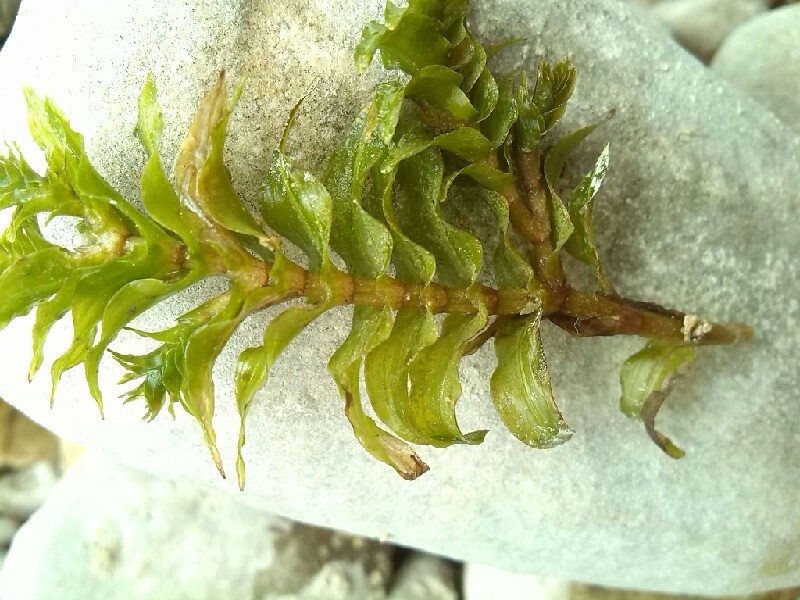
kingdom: Plantae
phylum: Tracheophyta
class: Liliopsida
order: Alismatales
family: Potamogetonaceae
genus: Groenlandia
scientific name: Groenlandia densa
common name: Opposite-leaved pondweed
